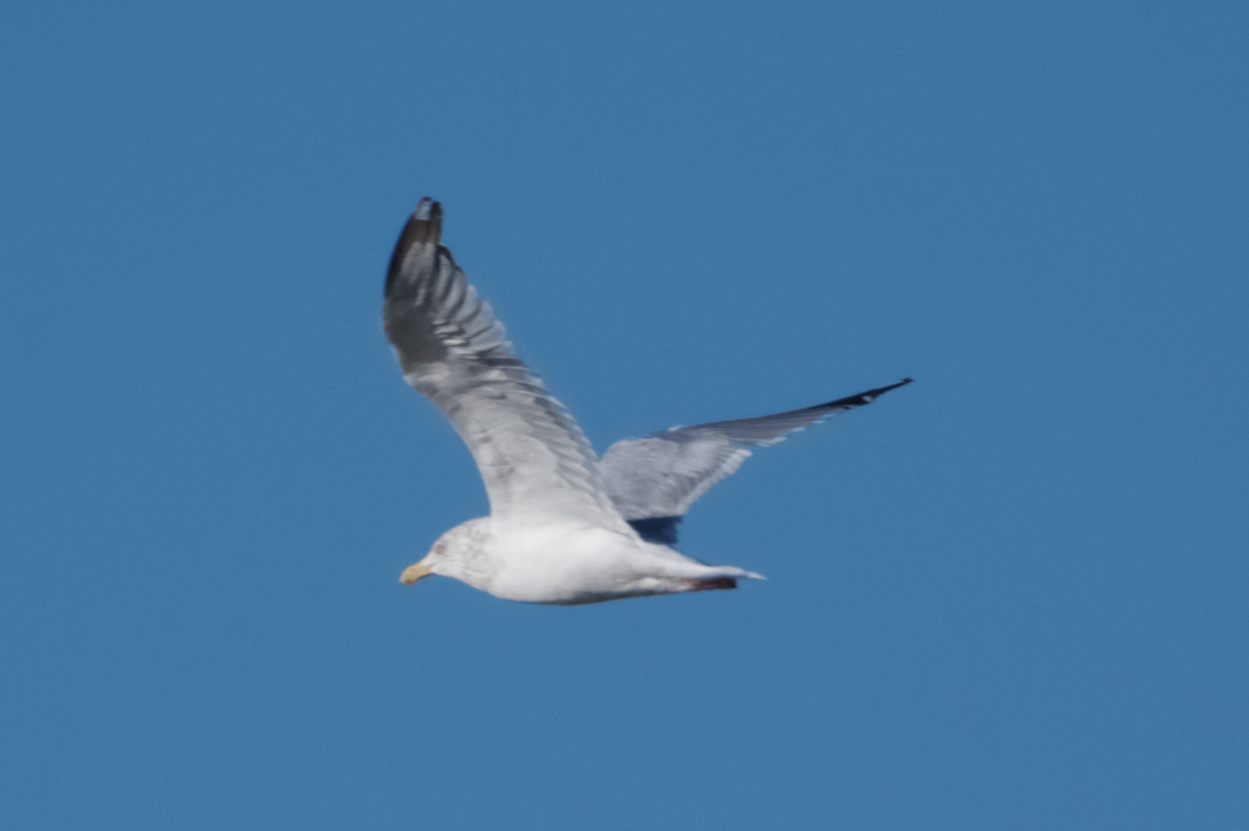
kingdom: Animalia
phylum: Chordata
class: Aves
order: Charadriiformes
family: Laridae
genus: Larus
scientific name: Larus argentatus
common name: Herring gull
